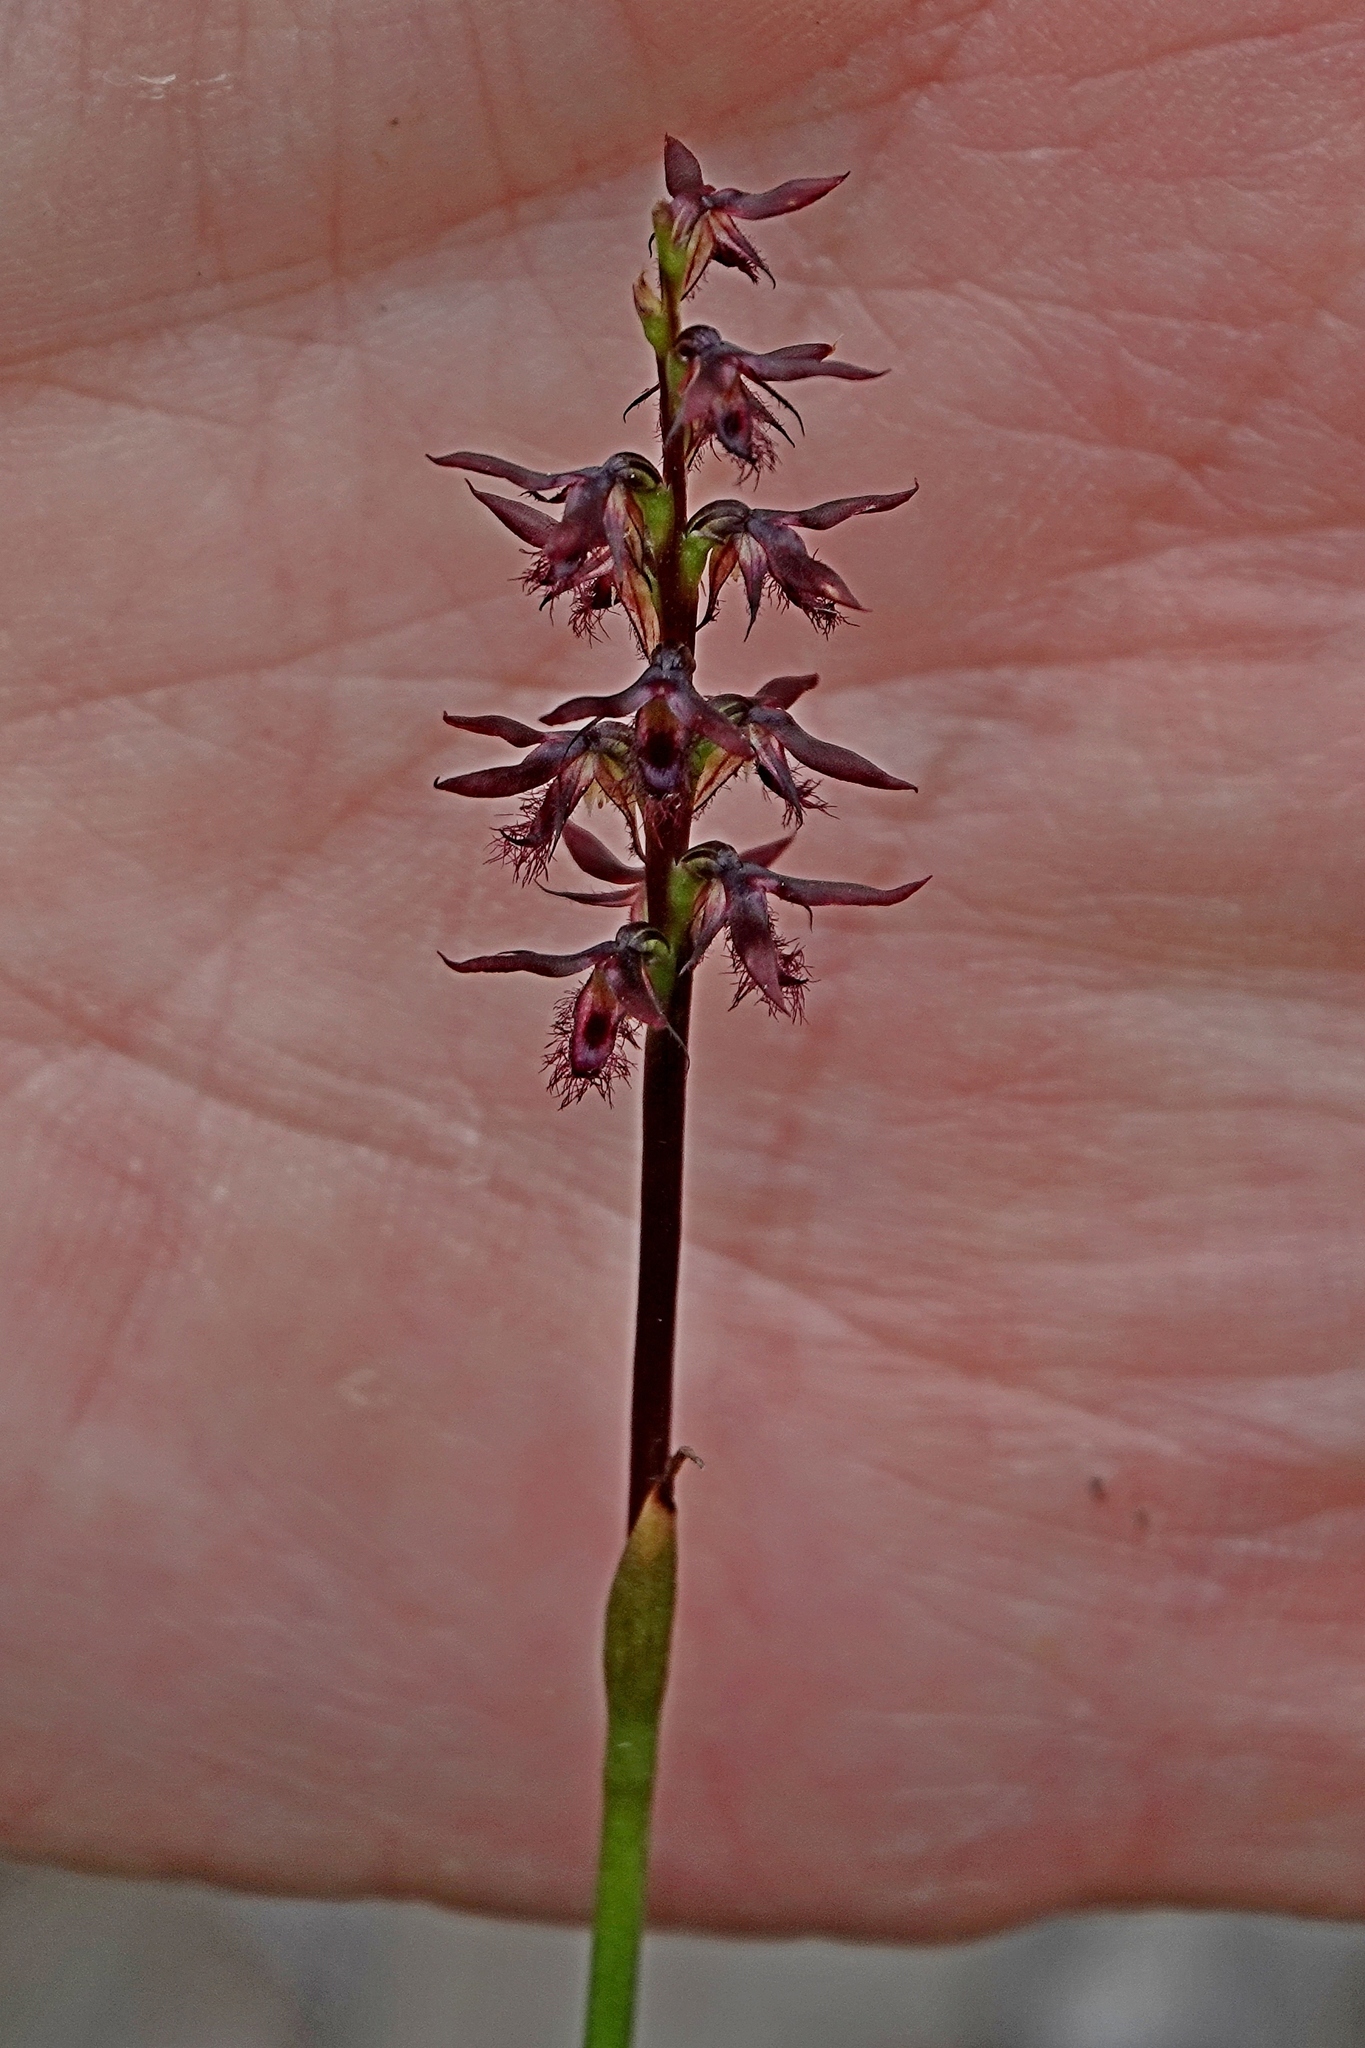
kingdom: Plantae
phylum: Tracheophyta
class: Liliopsida
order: Asparagales
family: Orchidaceae
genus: Genoplesium
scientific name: Genoplesium rhyoliticum
